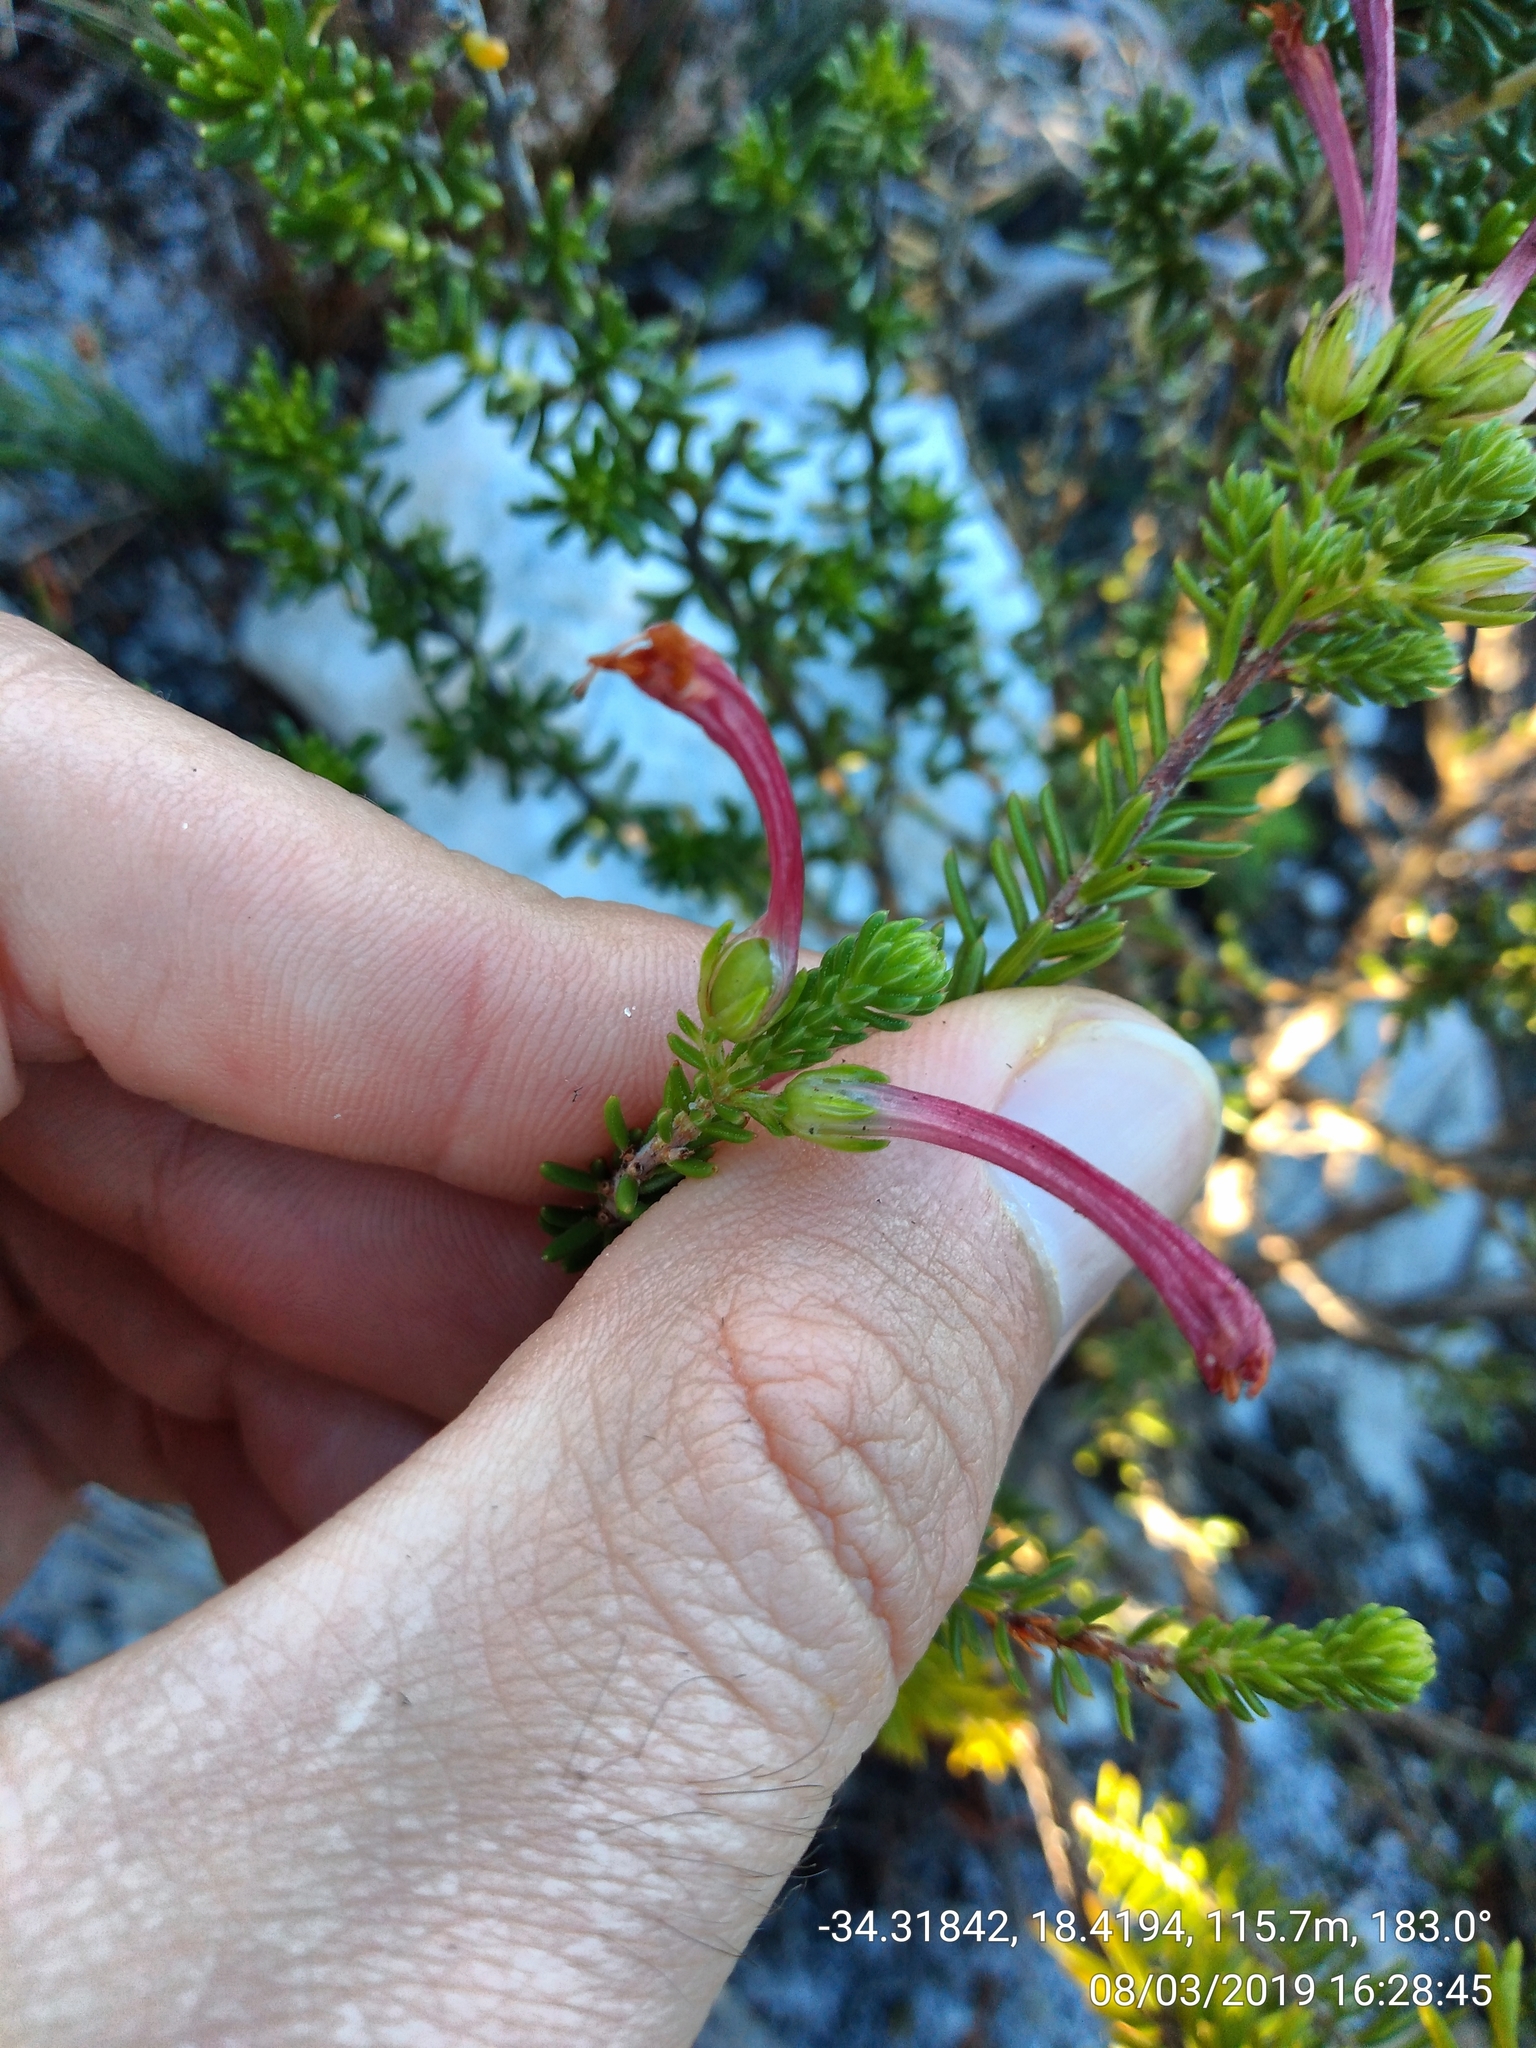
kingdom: Plantae
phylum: Tracheophyta
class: Magnoliopsida
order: Ericales
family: Ericaceae
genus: Erica
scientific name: Erica abietina
